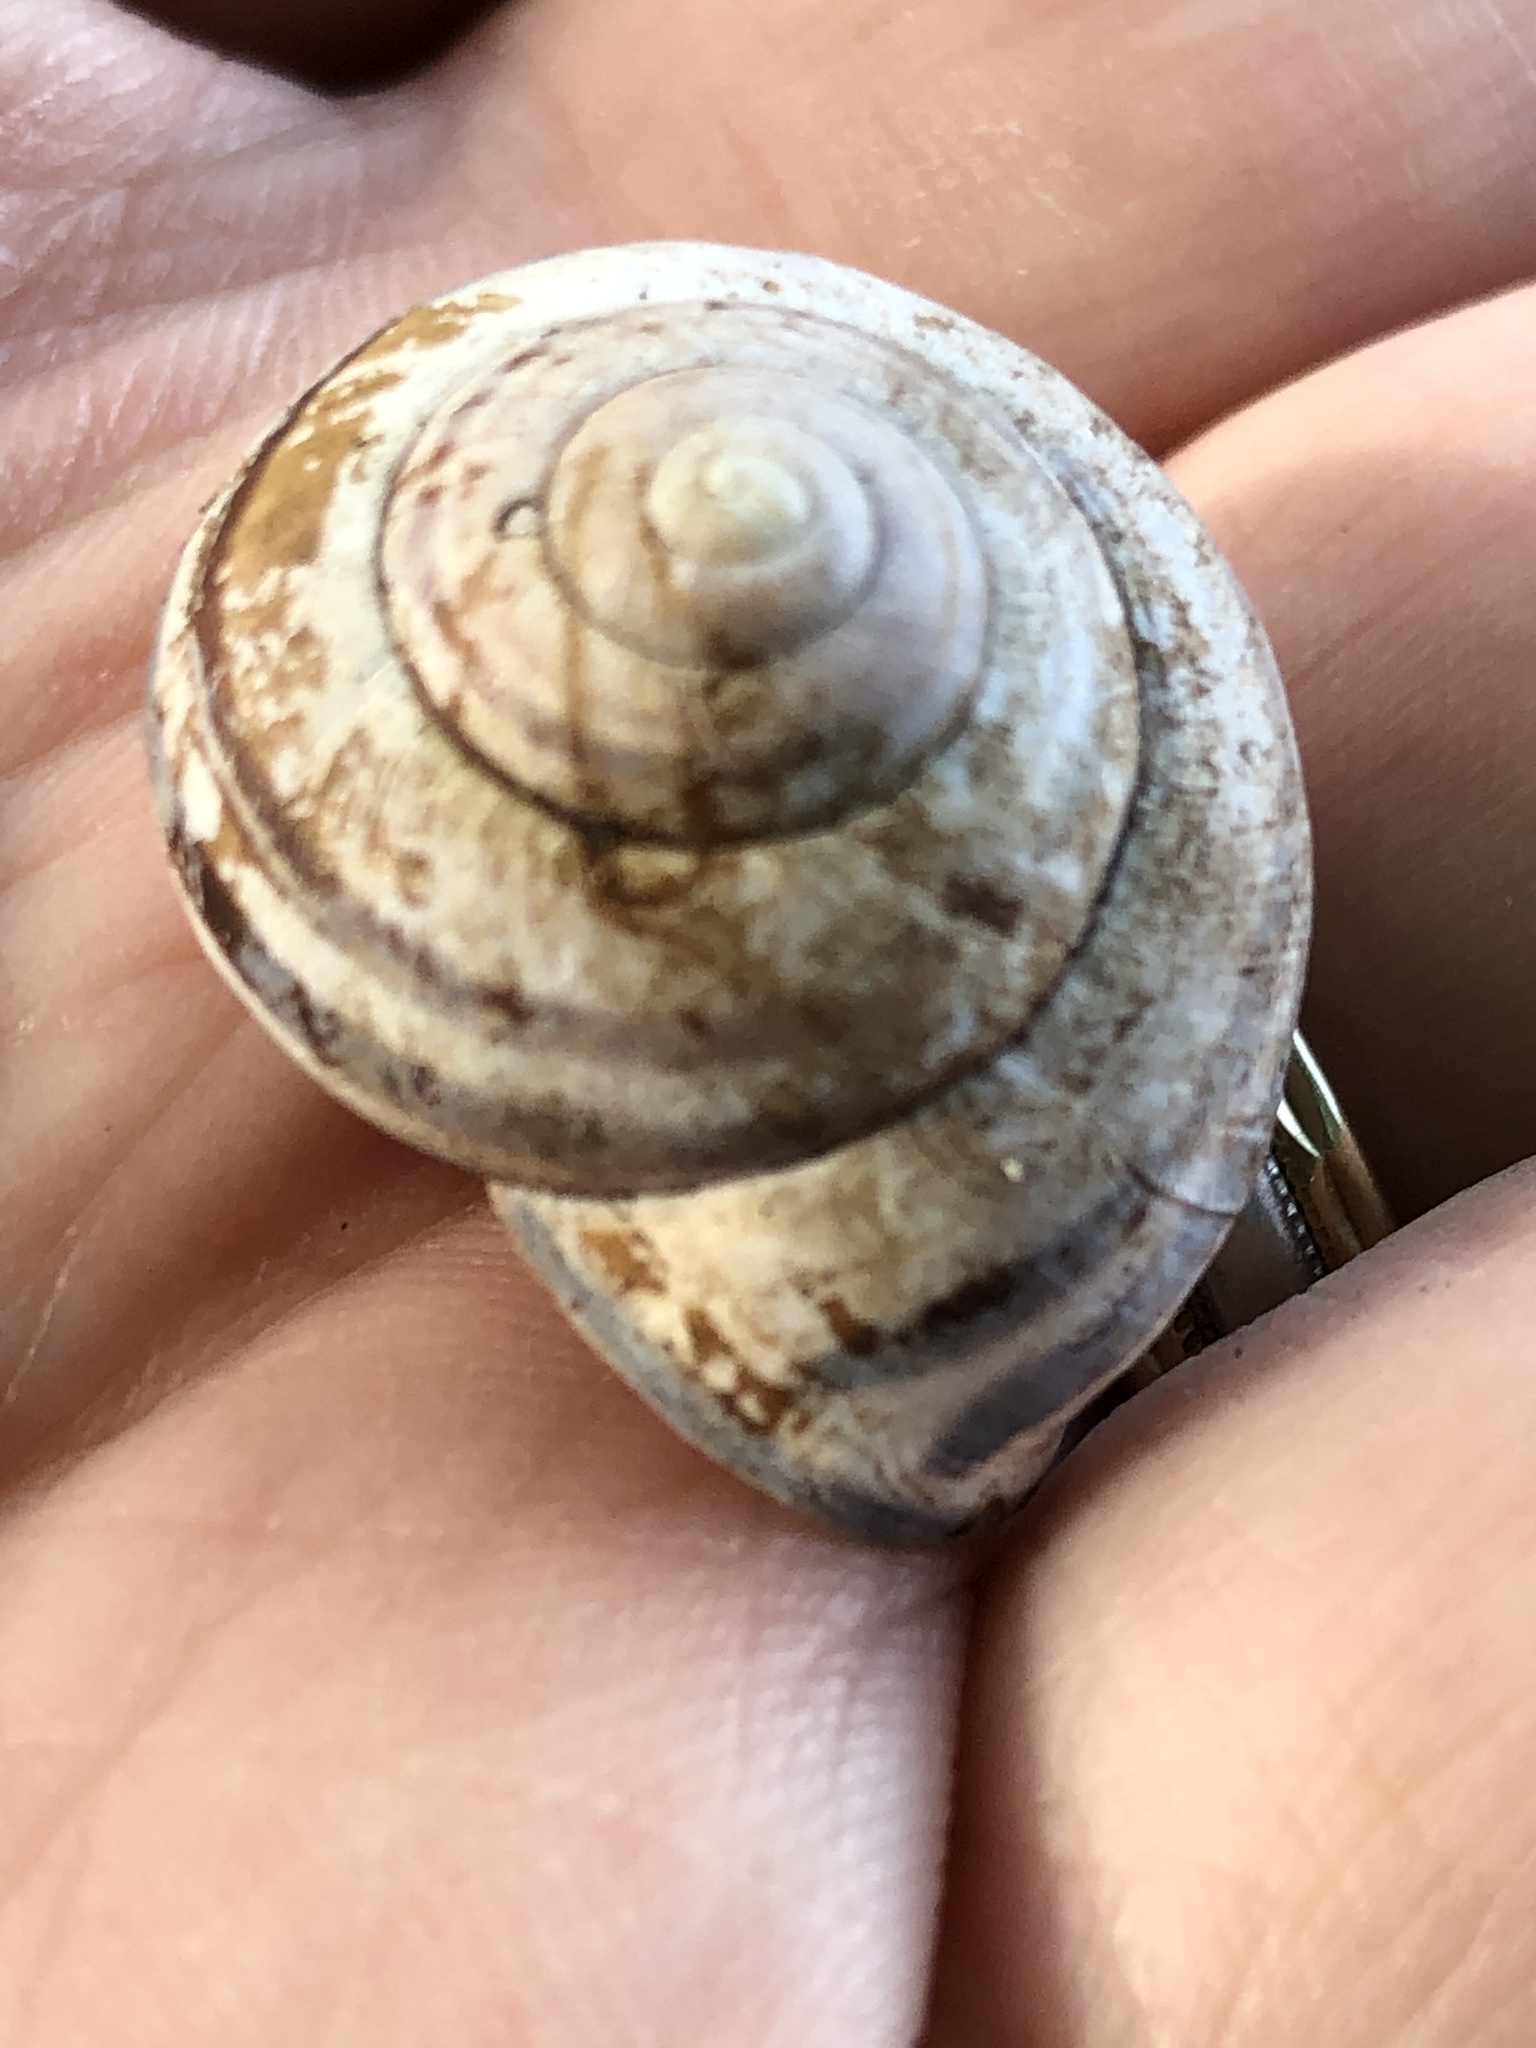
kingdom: Animalia
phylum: Mollusca
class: Gastropoda
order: Stylommatophora
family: Helicidae
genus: Cepaea
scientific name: Cepaea nemoralis
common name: Grovesnail
